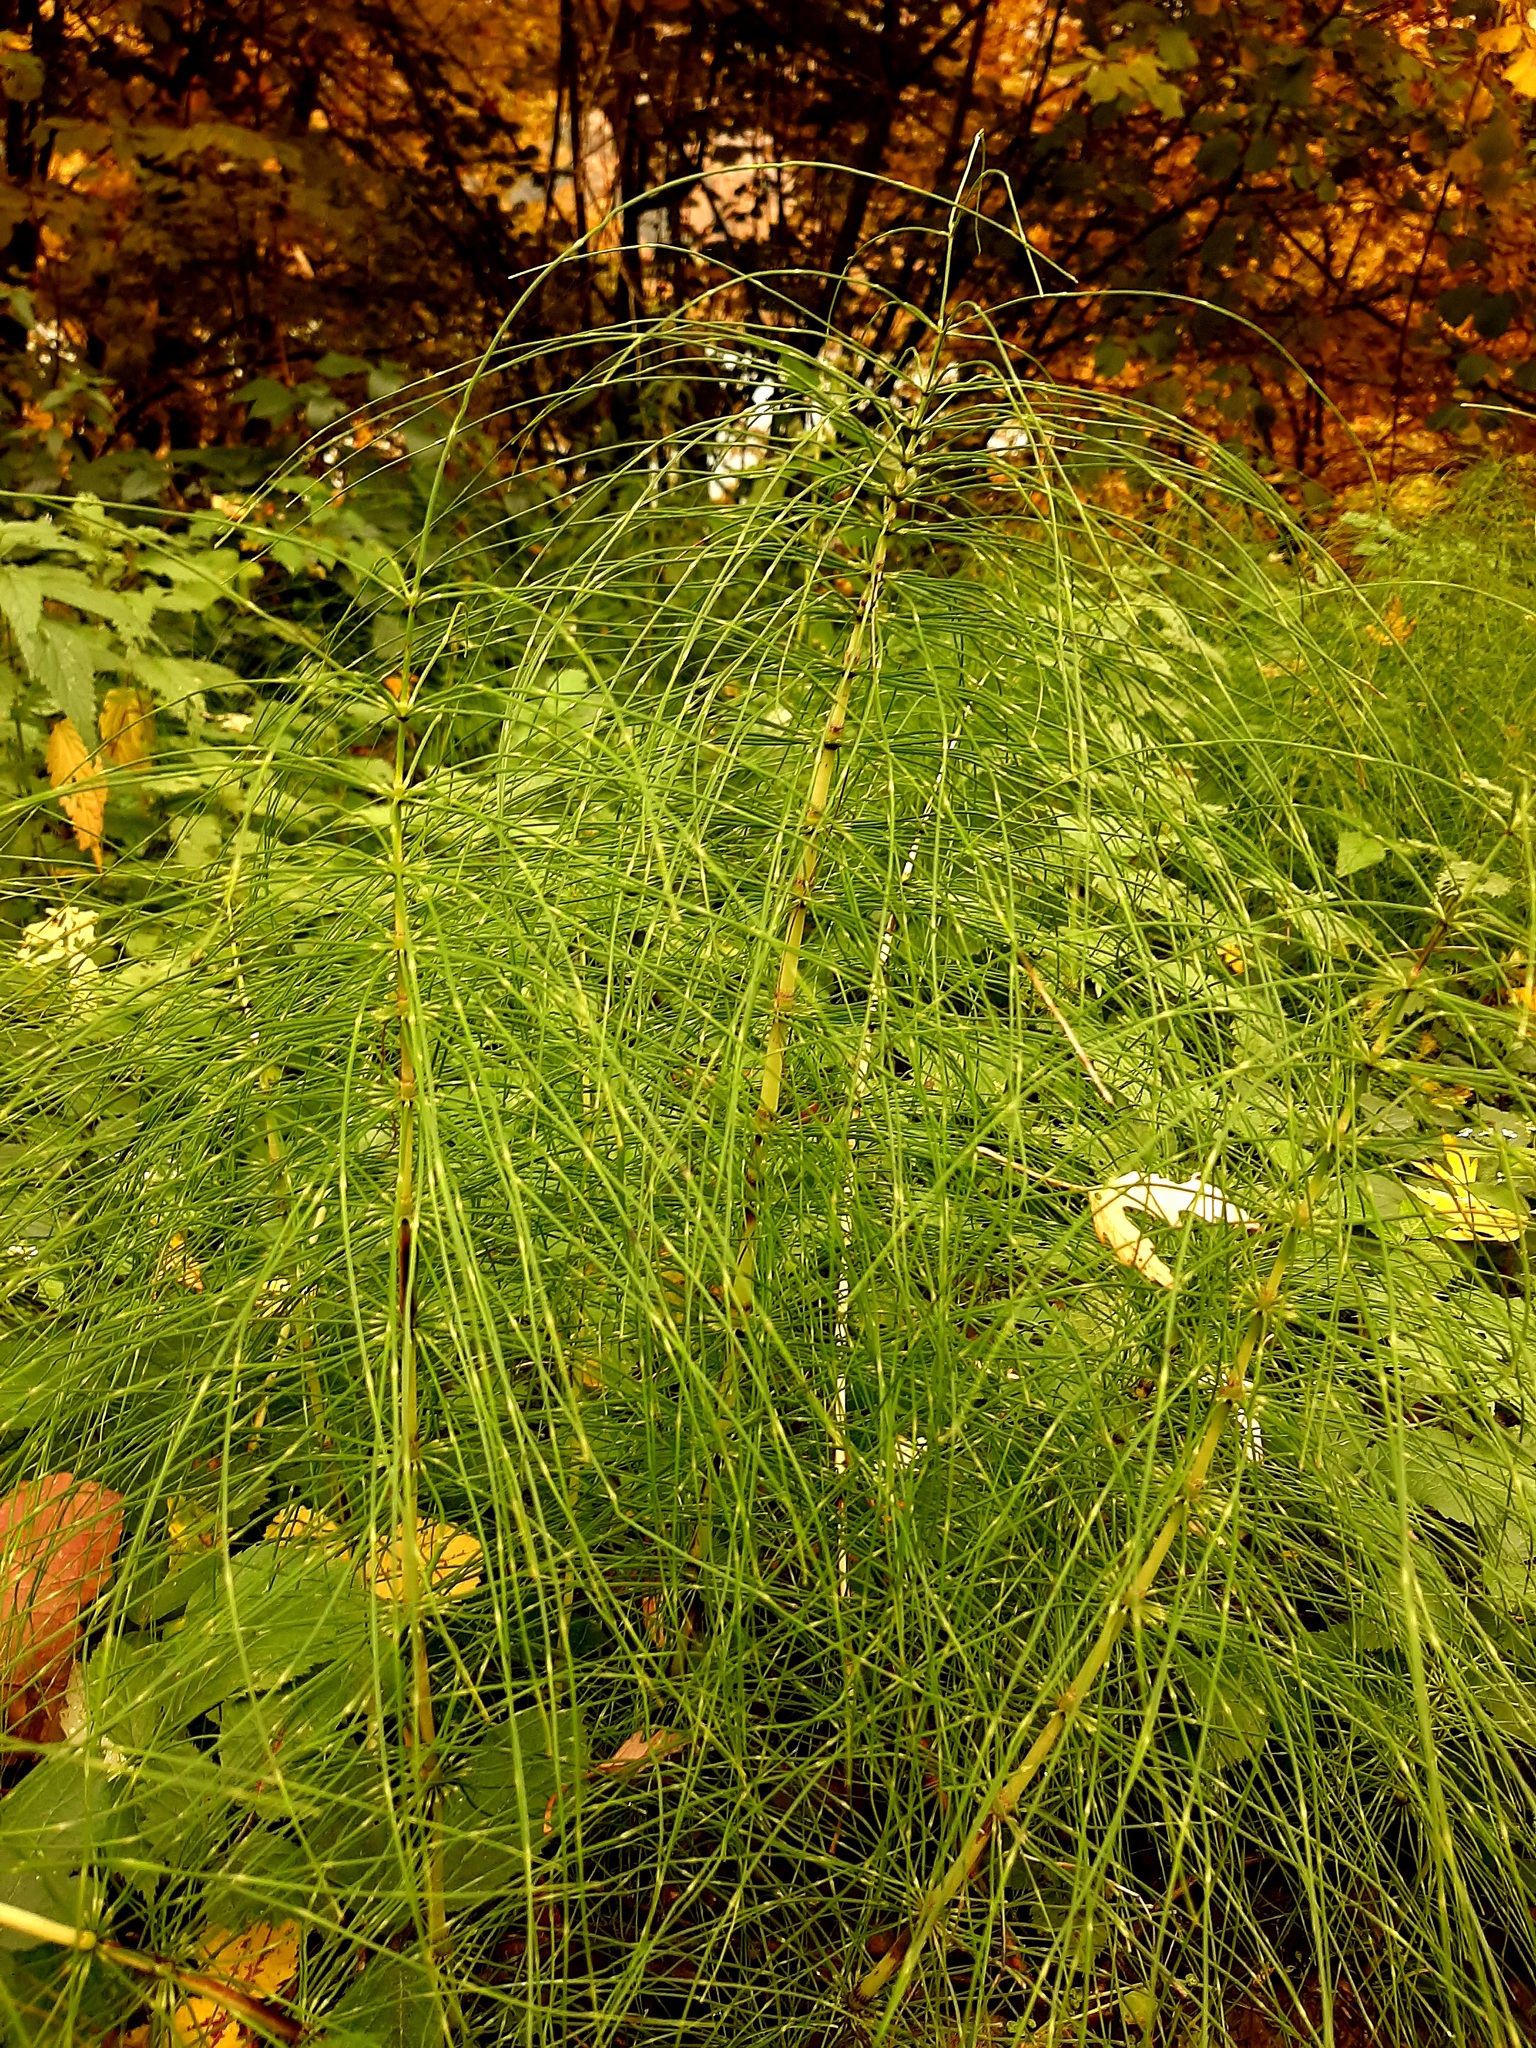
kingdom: Plantae
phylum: Tracheophyta
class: Polypodiopsida
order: Equisetales
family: Equisetaceae
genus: Equisetum
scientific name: Equisetum telmateia
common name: Great horsetail
